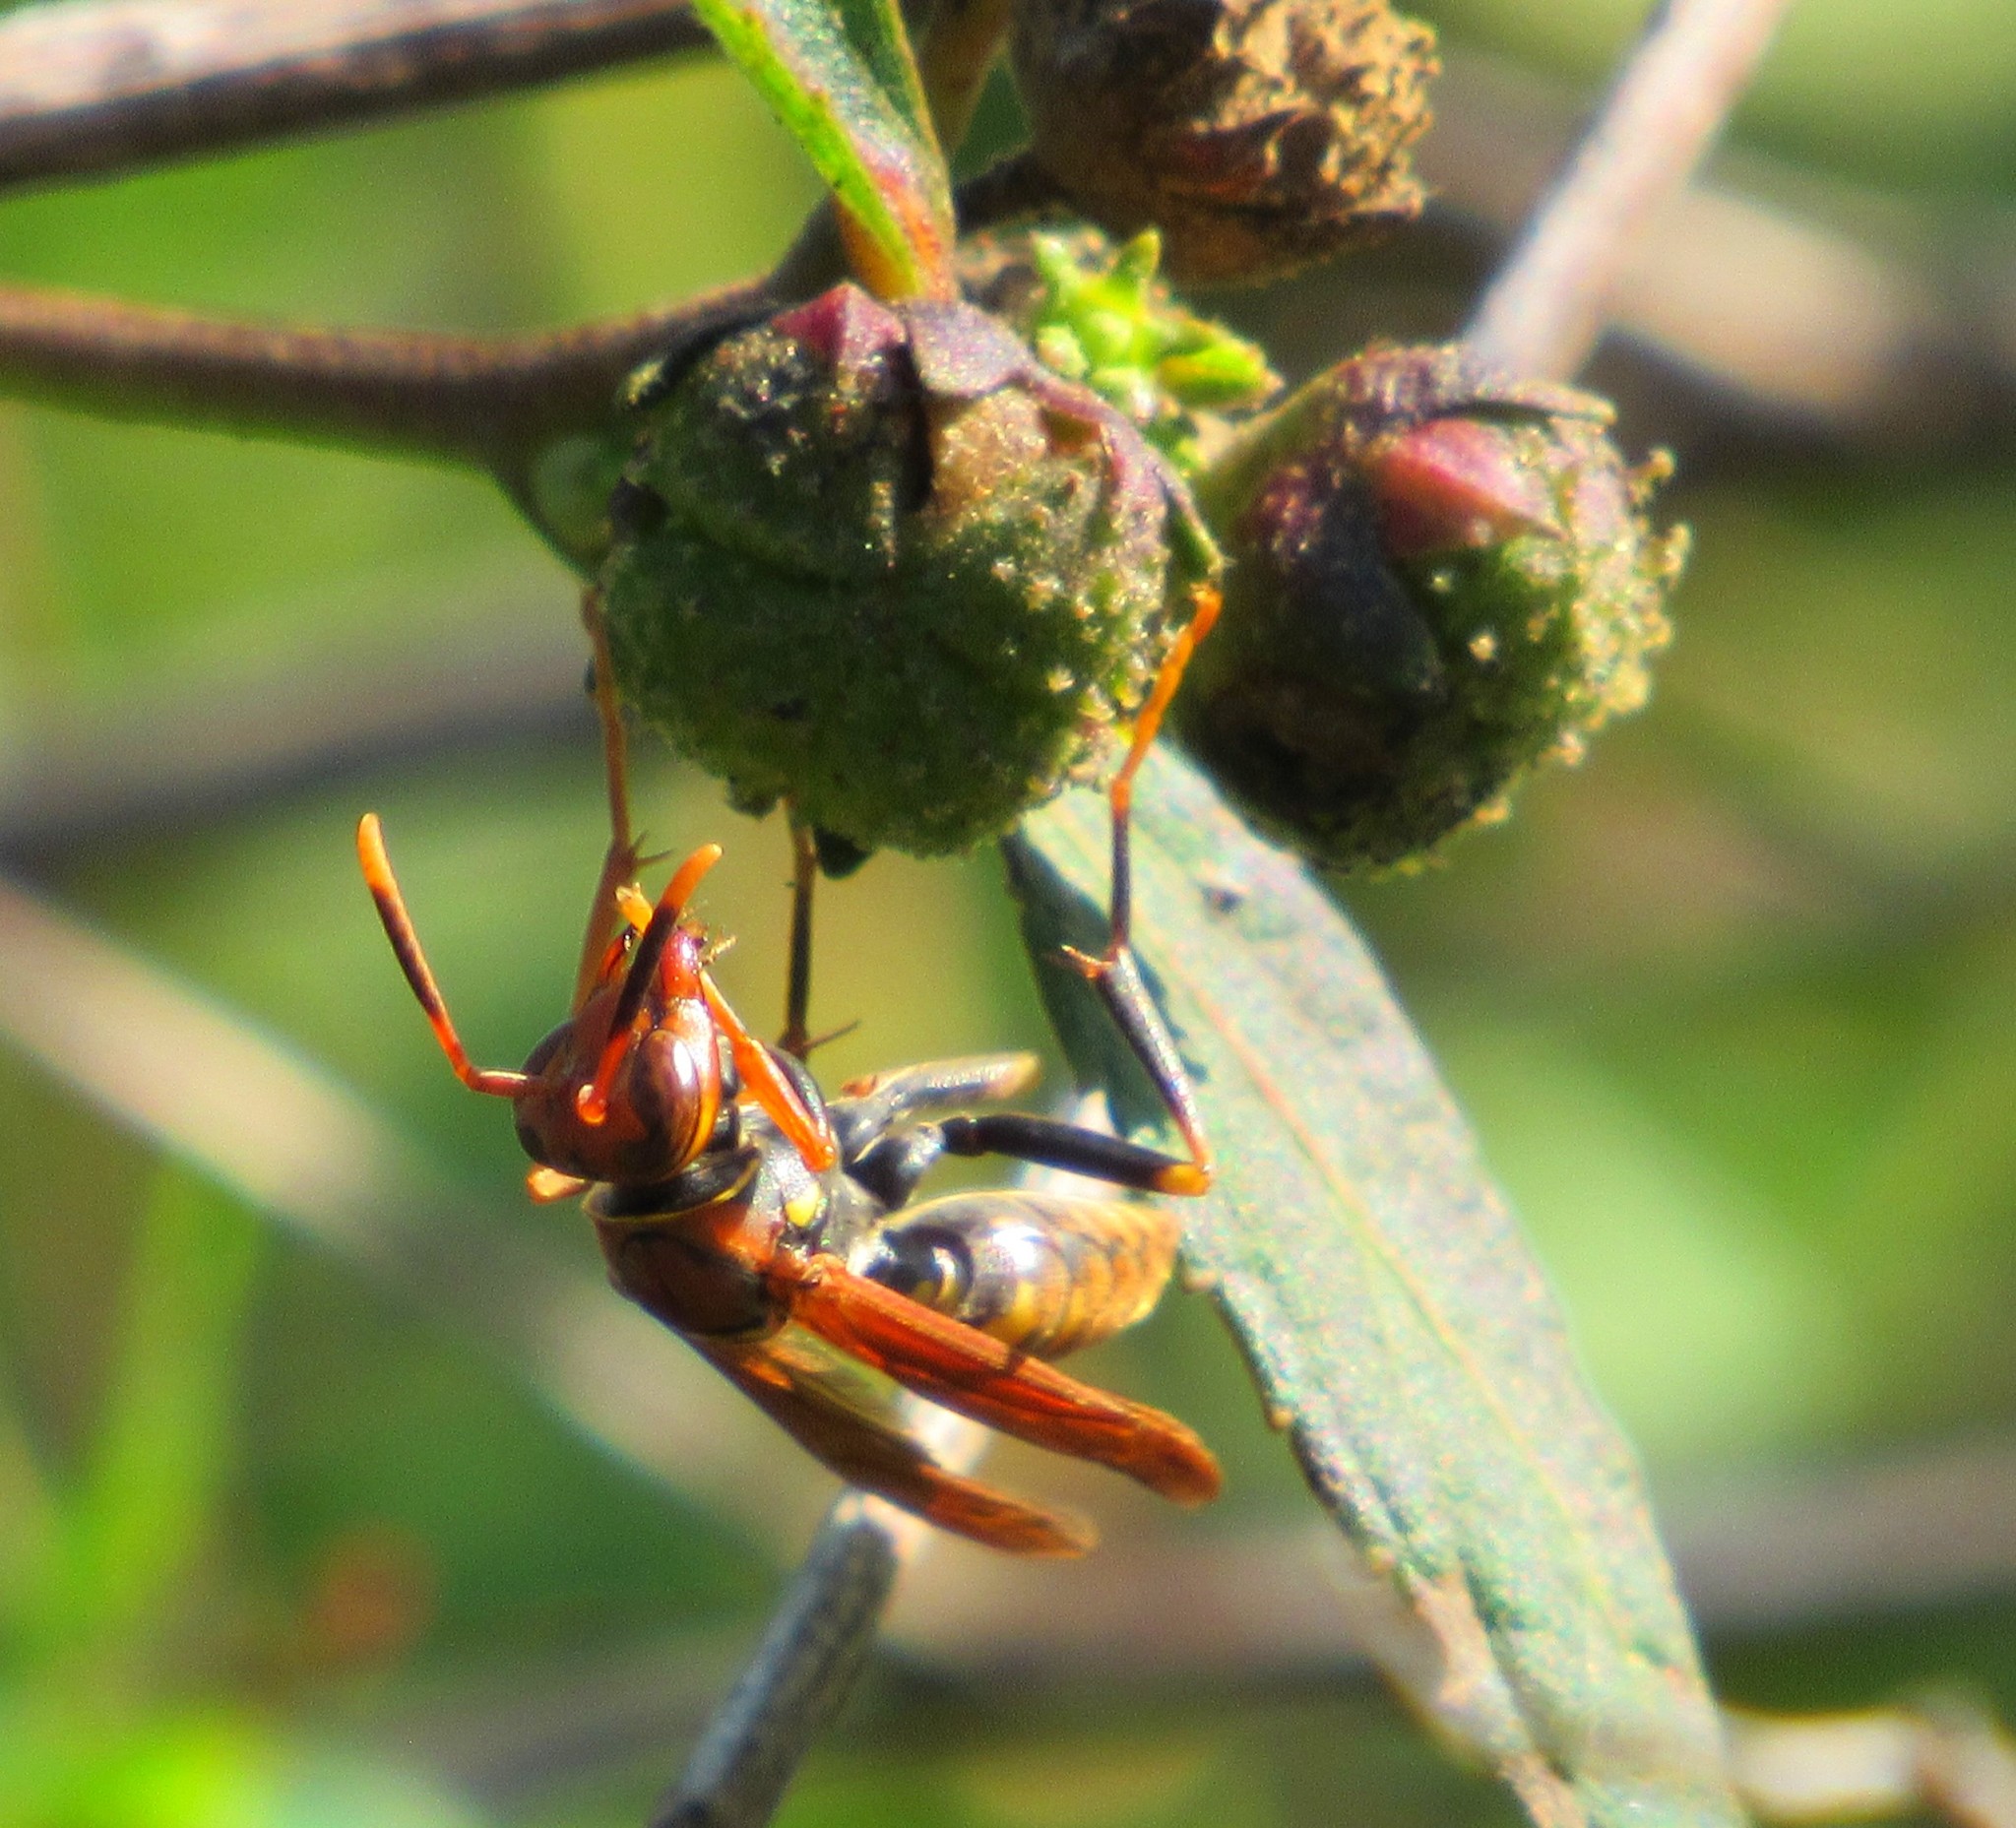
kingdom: Animalia
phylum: Arthropoda
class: Insecta
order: Hymenoptera
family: Eumenidae
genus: Polistes
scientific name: Polistes versicolor
